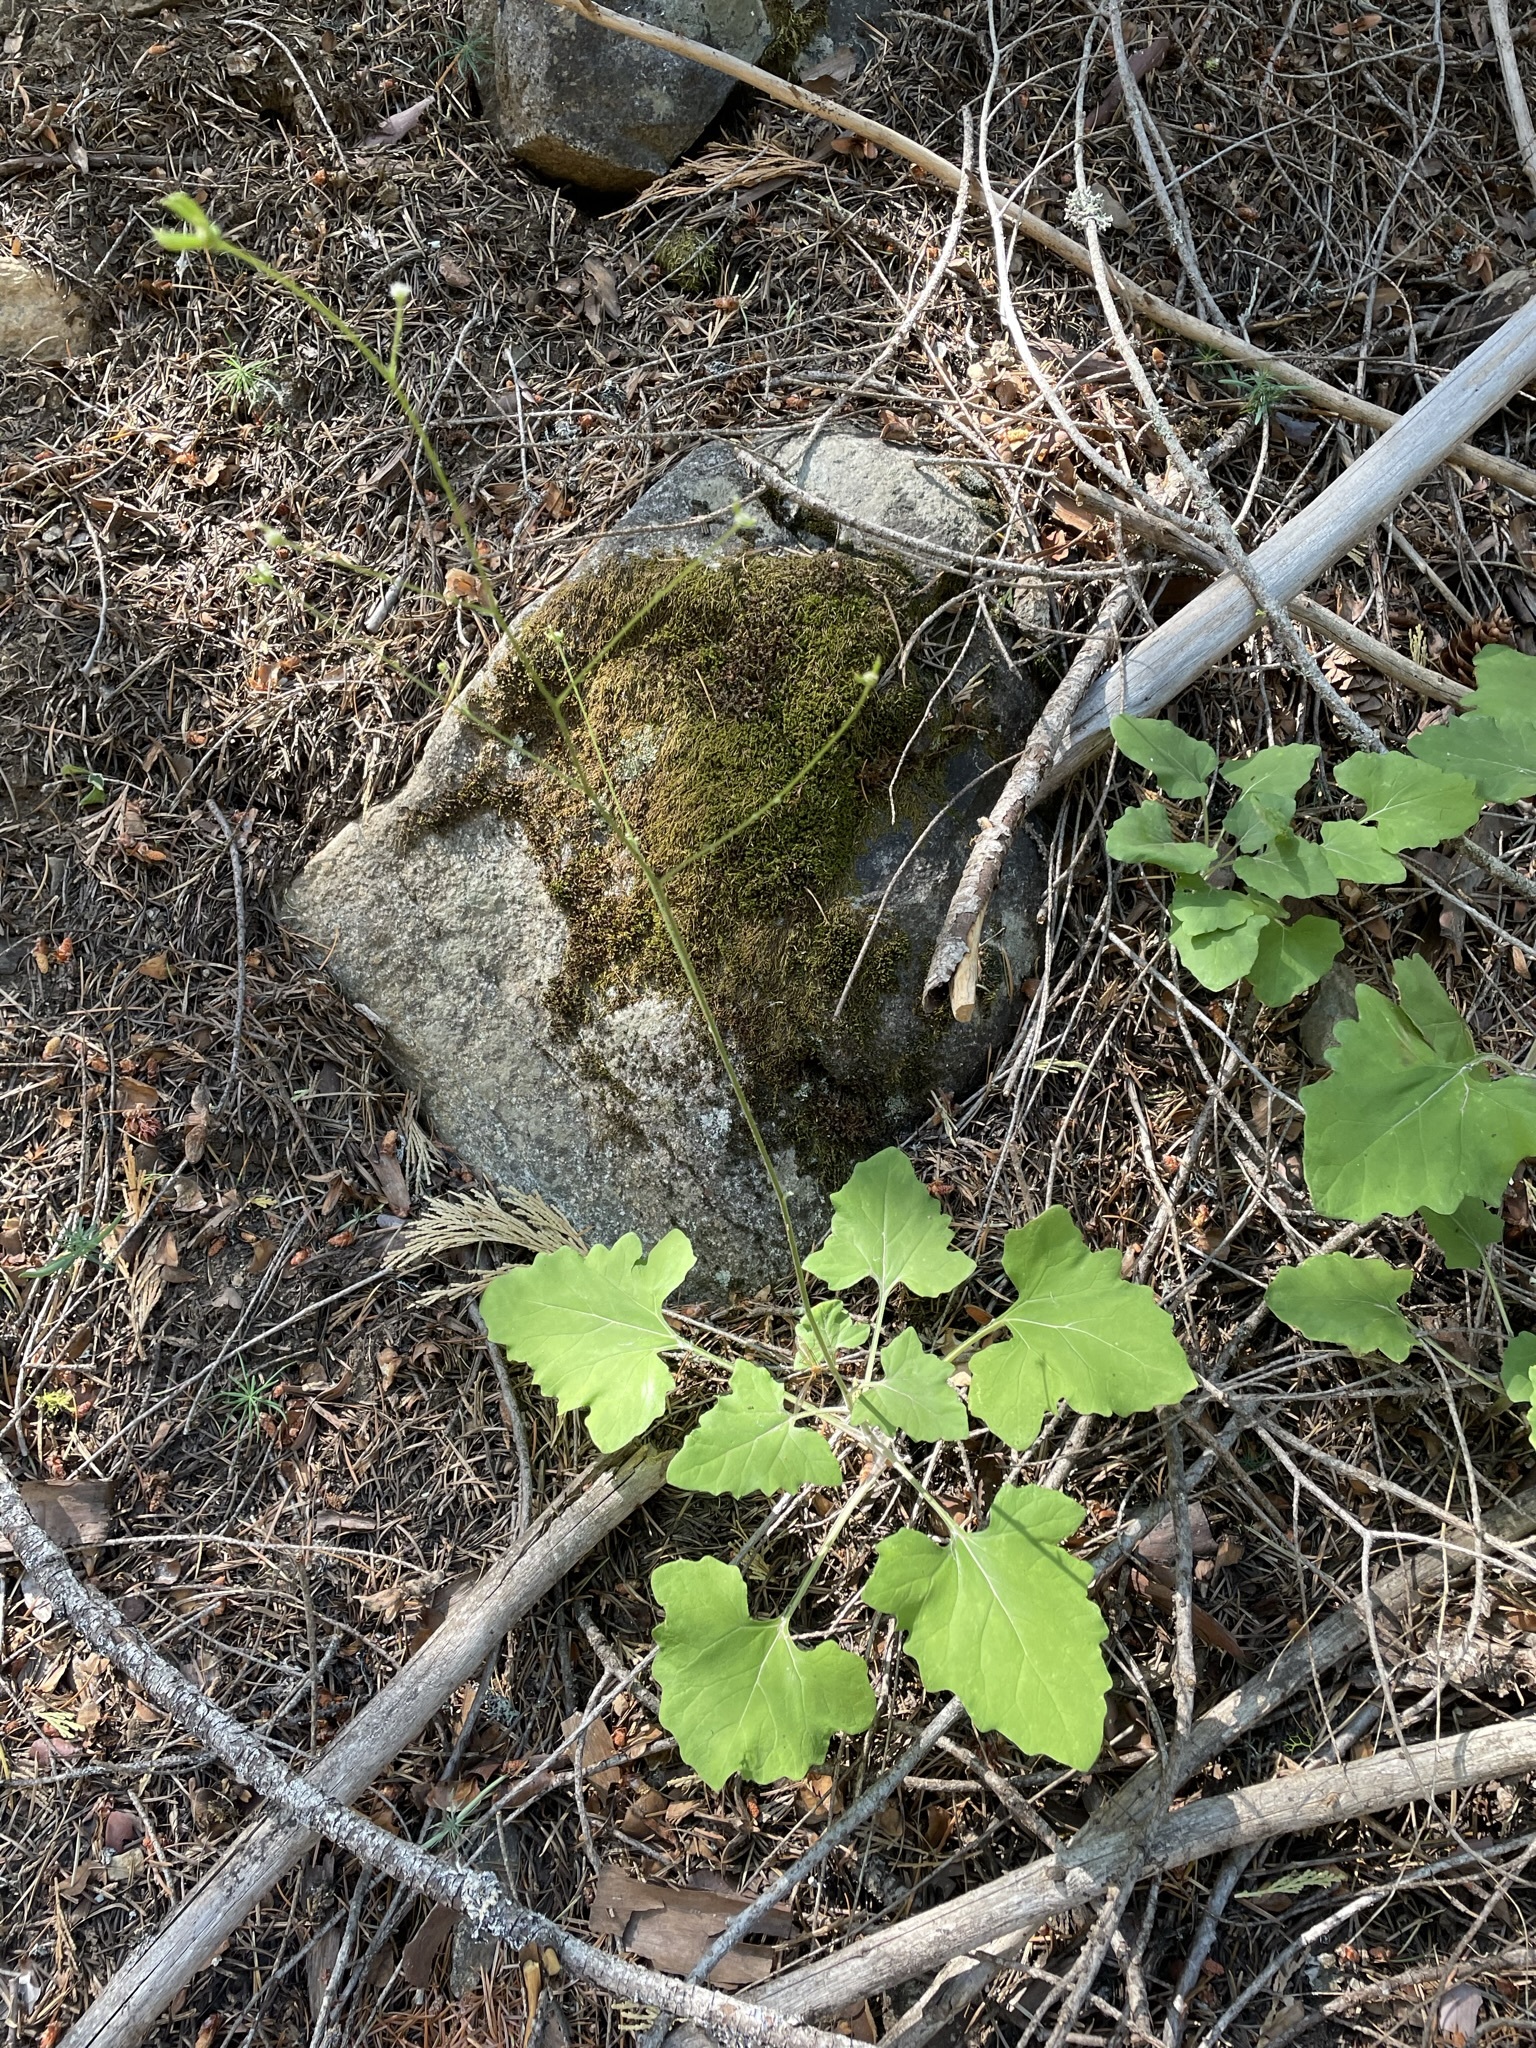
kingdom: Plantae
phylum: Tracheophyta
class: Magnoliopsida
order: Asterales
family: Asteraceae
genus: Adenocaulon
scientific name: Adenocaulon bicolor
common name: Trailplant
